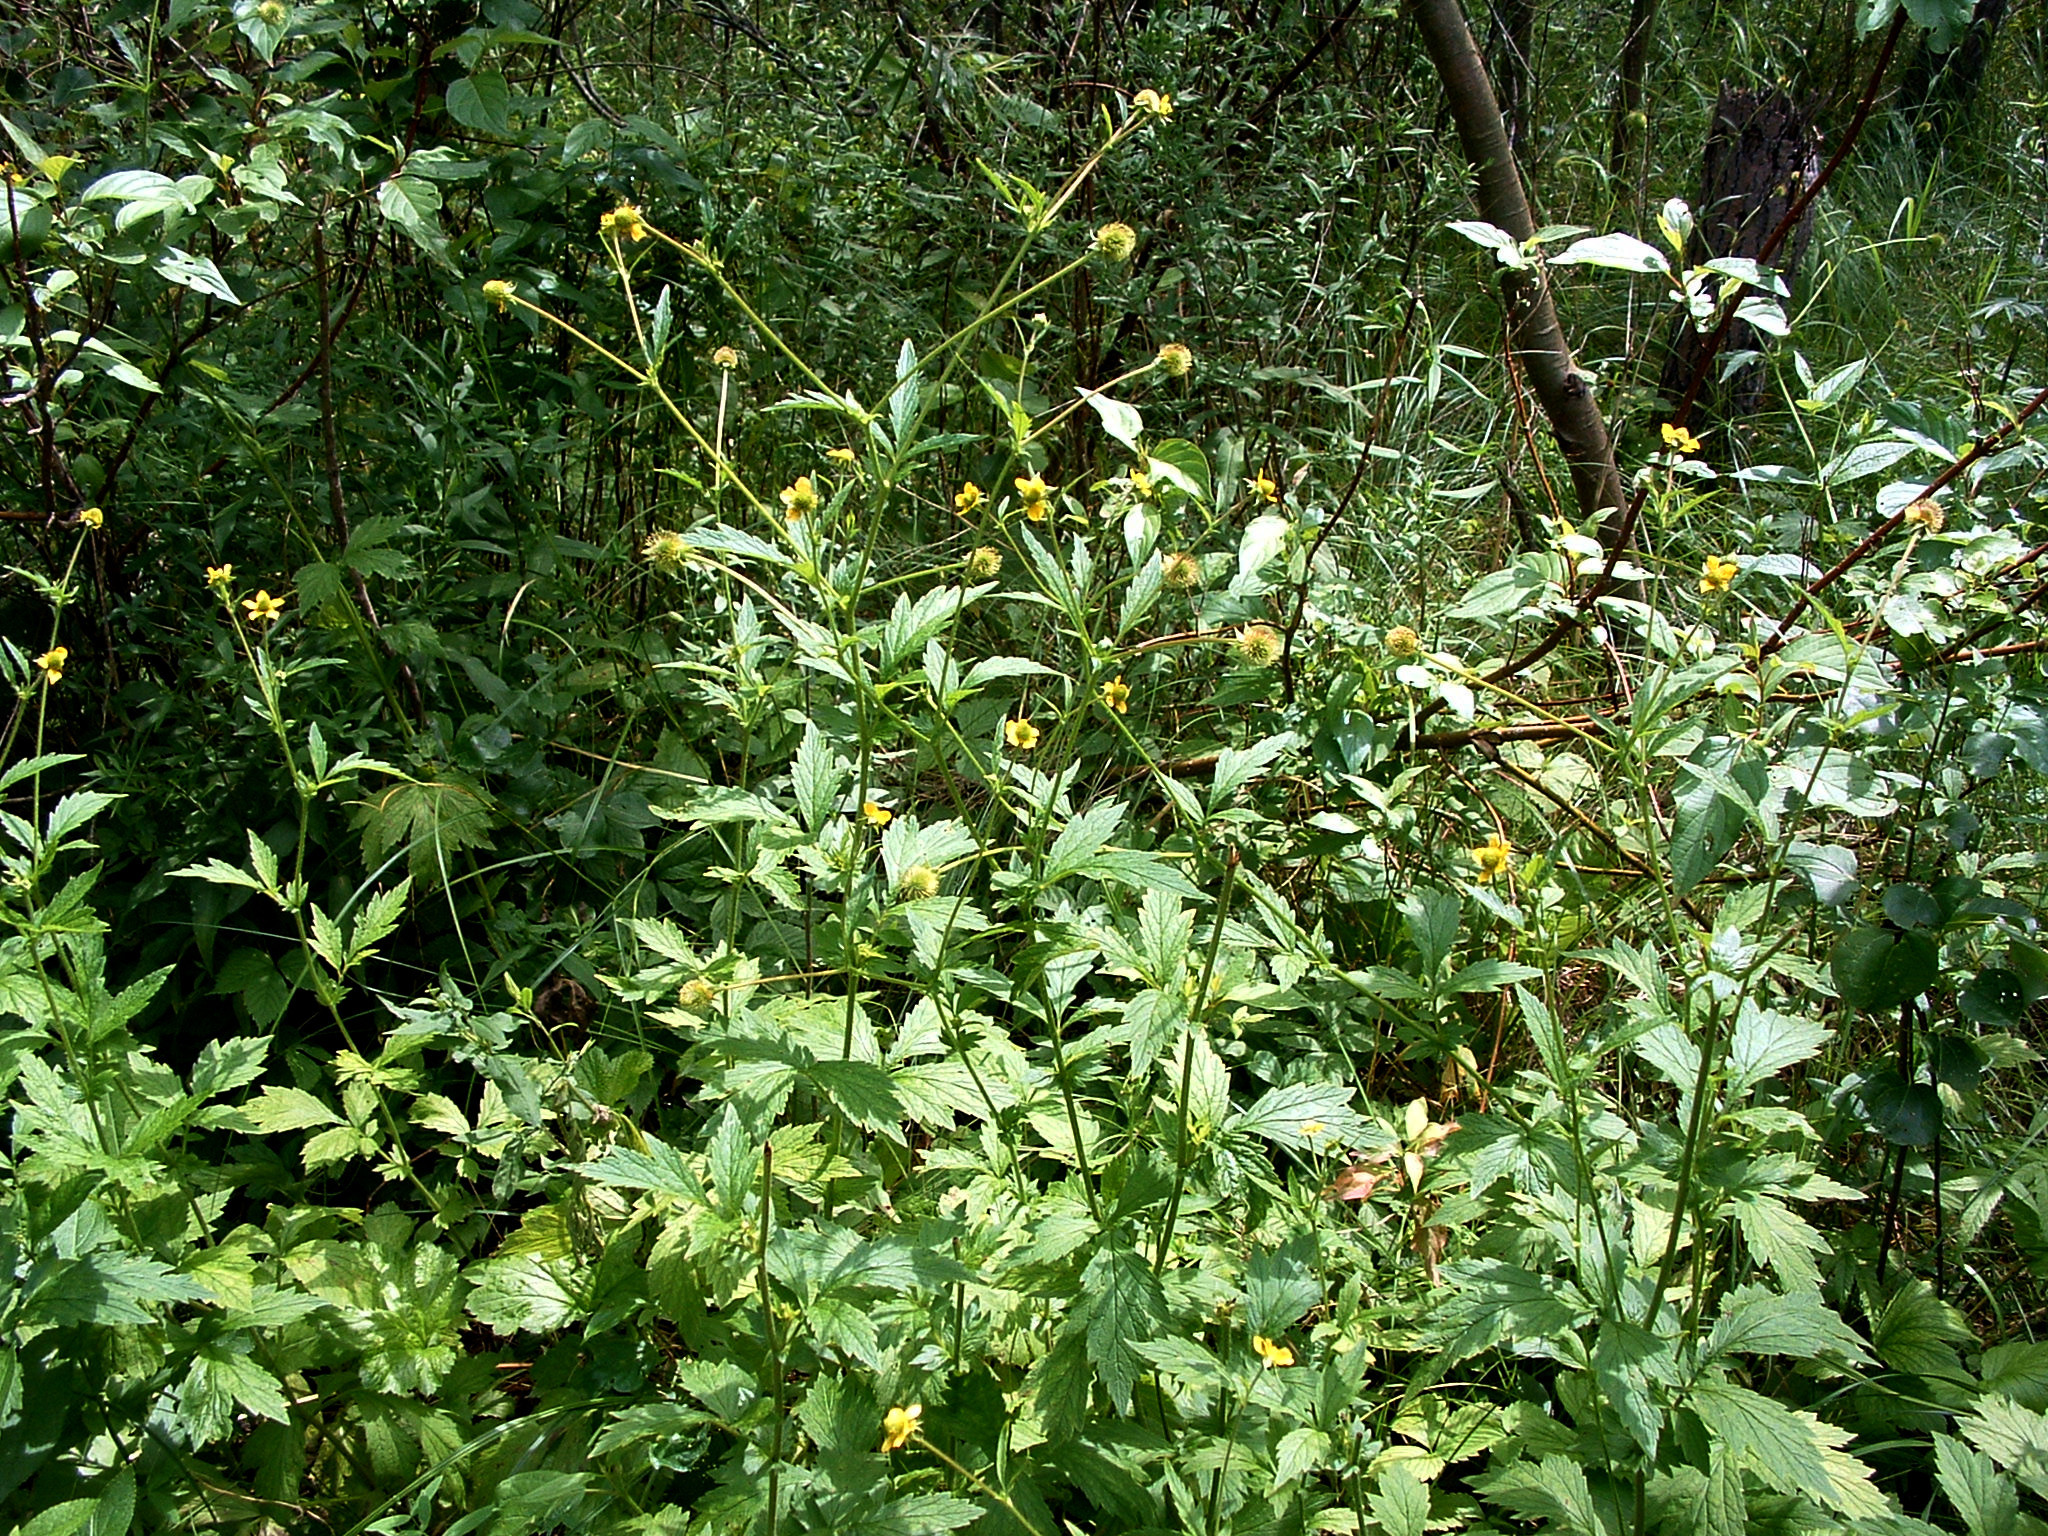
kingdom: Plantae
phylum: Tracheophyta
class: Magnoliopsida
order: Rosales
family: Rosaceae
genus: Geum
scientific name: Geum aleppicum
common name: Yellow avens
